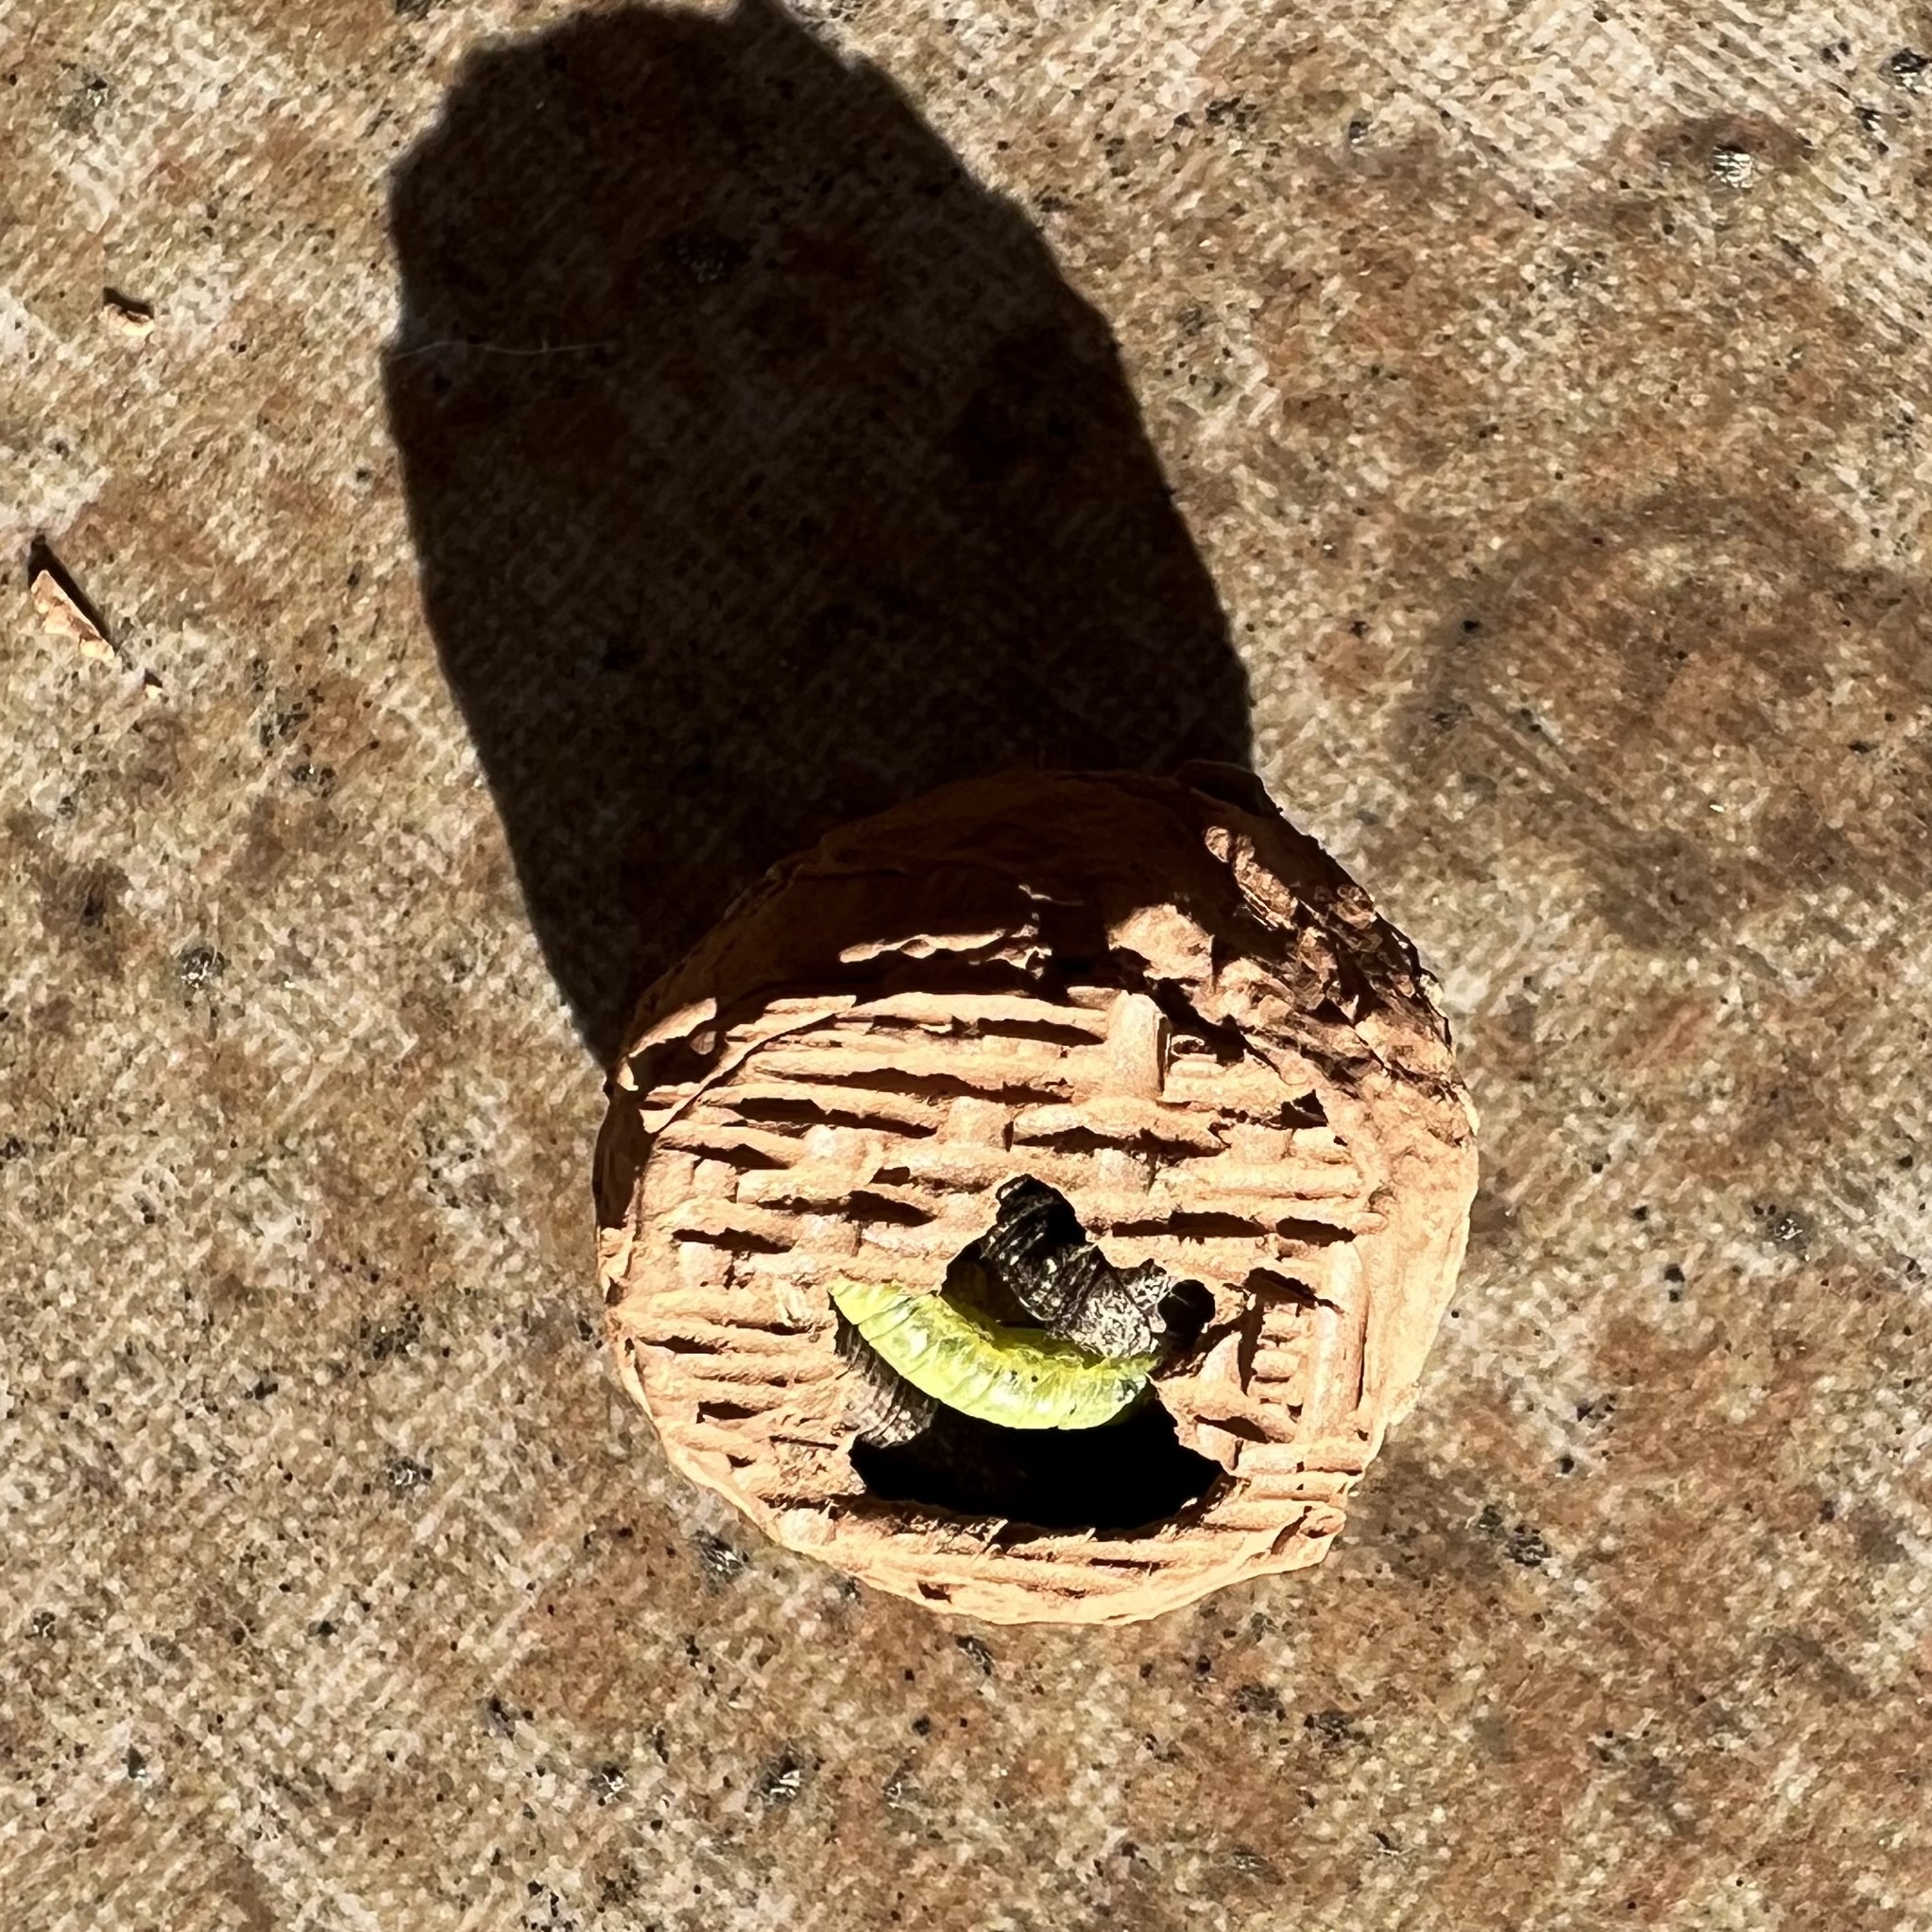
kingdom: Animalia
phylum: Arthropoda
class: Insecta
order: Hymenoptera
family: Vespidae
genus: Eumenes
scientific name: Eumenes fraternus
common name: Fraternal potter wasp
